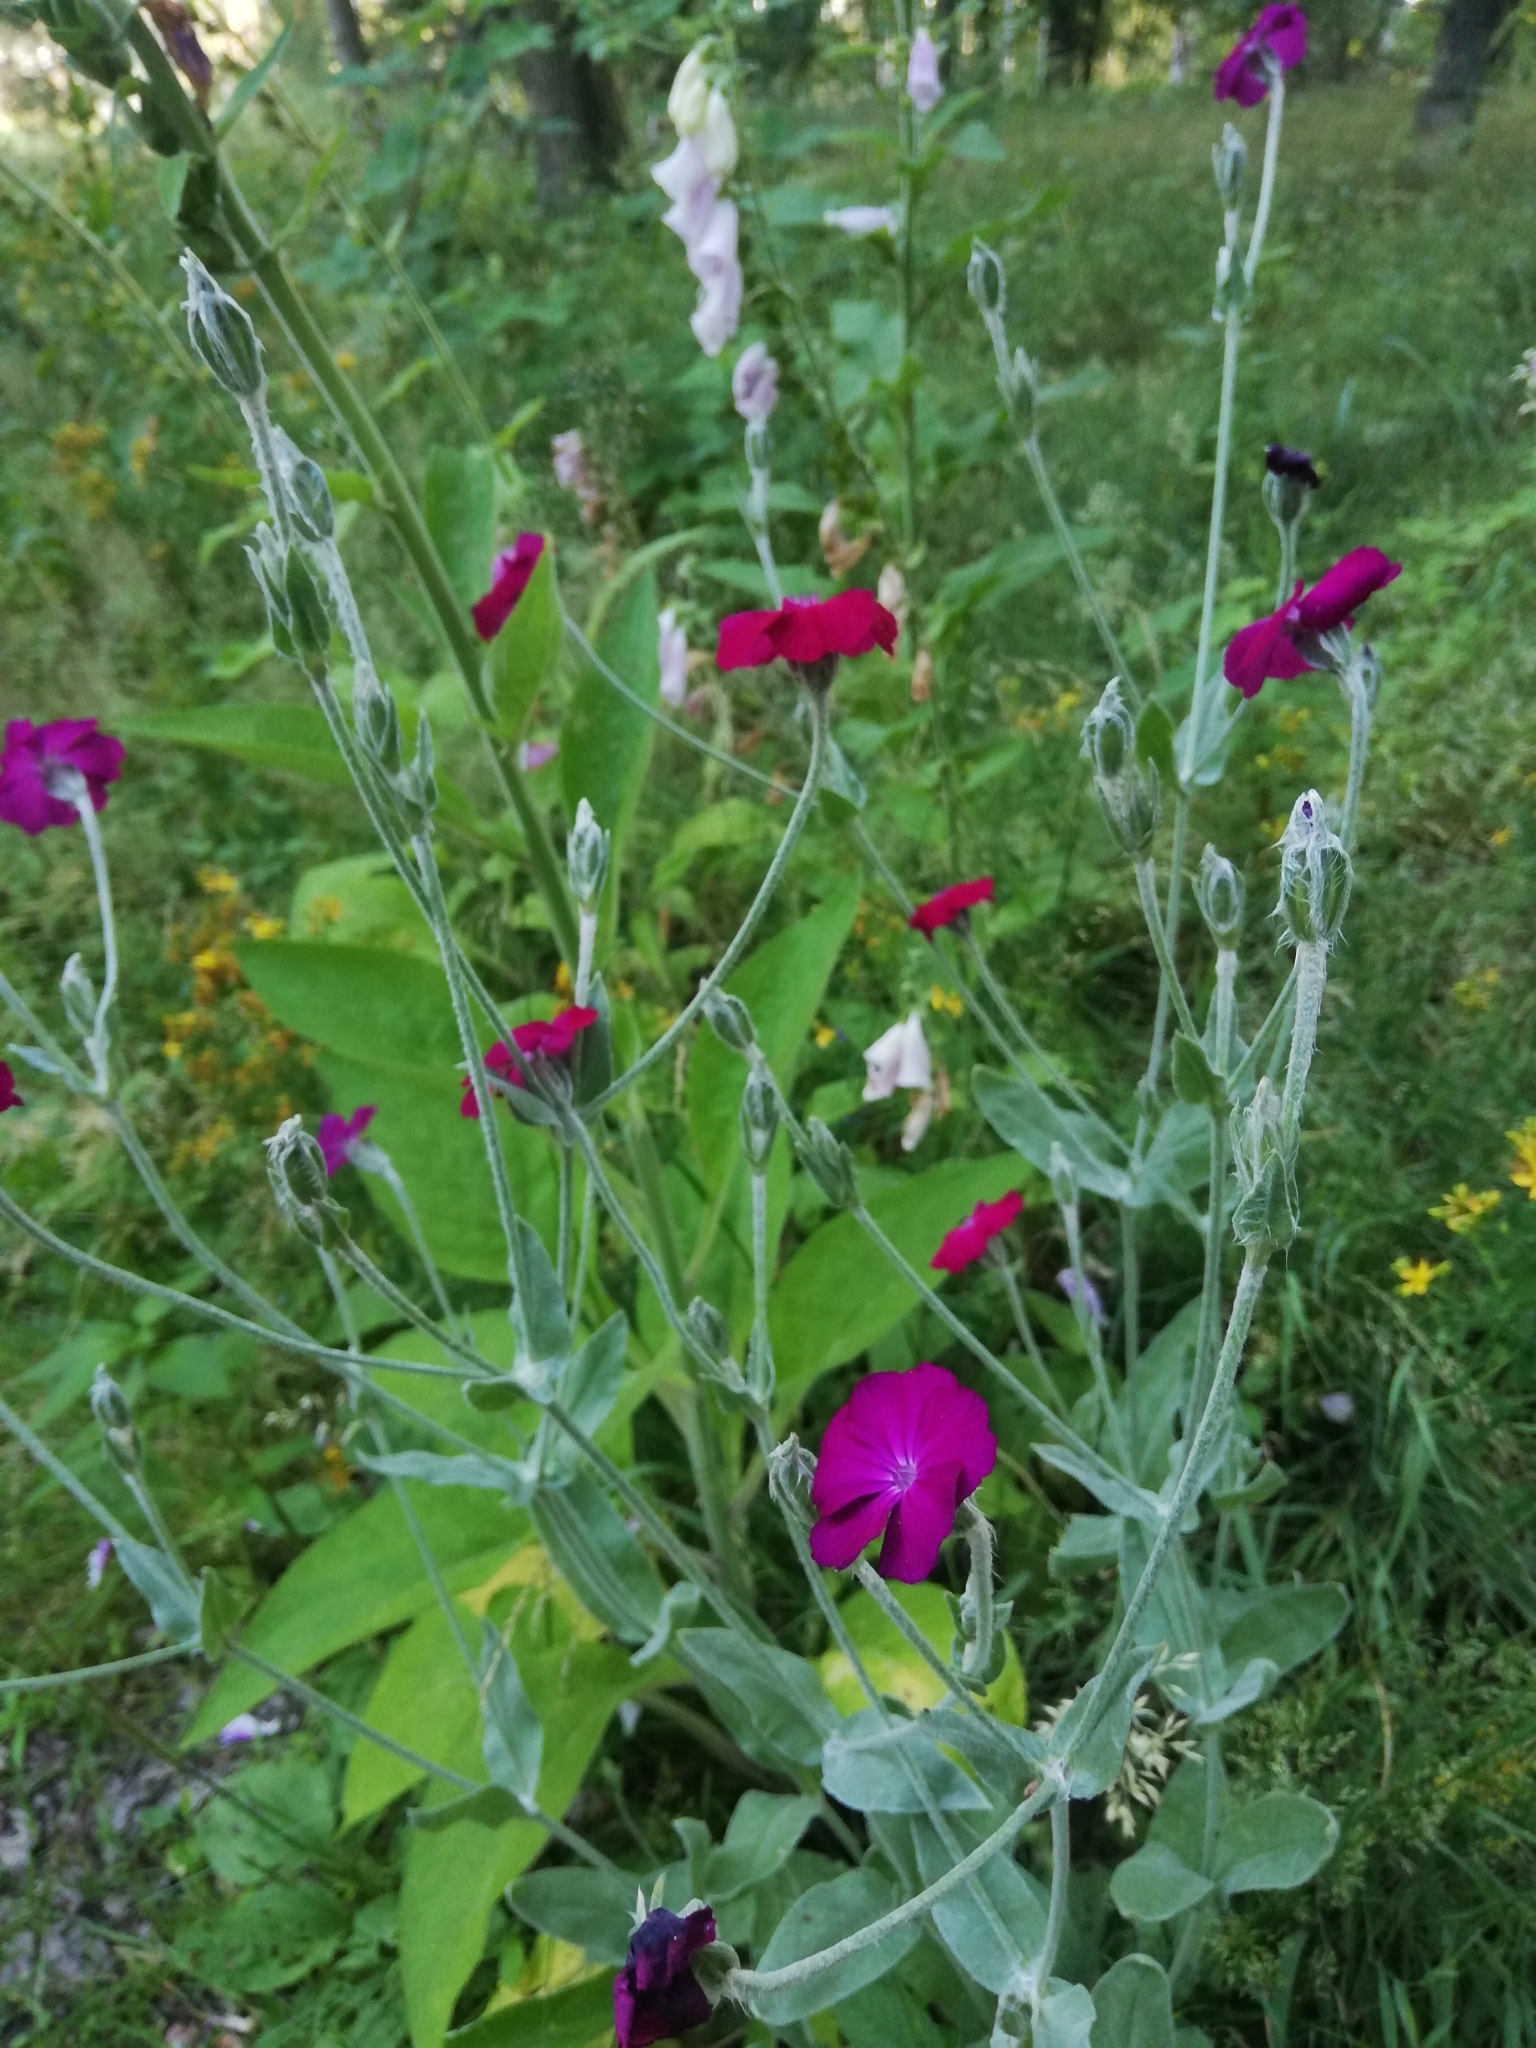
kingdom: Plantae
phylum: Tracheophyta
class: Magnoliopsida
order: Caryophyllales
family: Caryophyllaceae
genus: Silene
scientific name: Silene coronaria
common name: Rose campion
